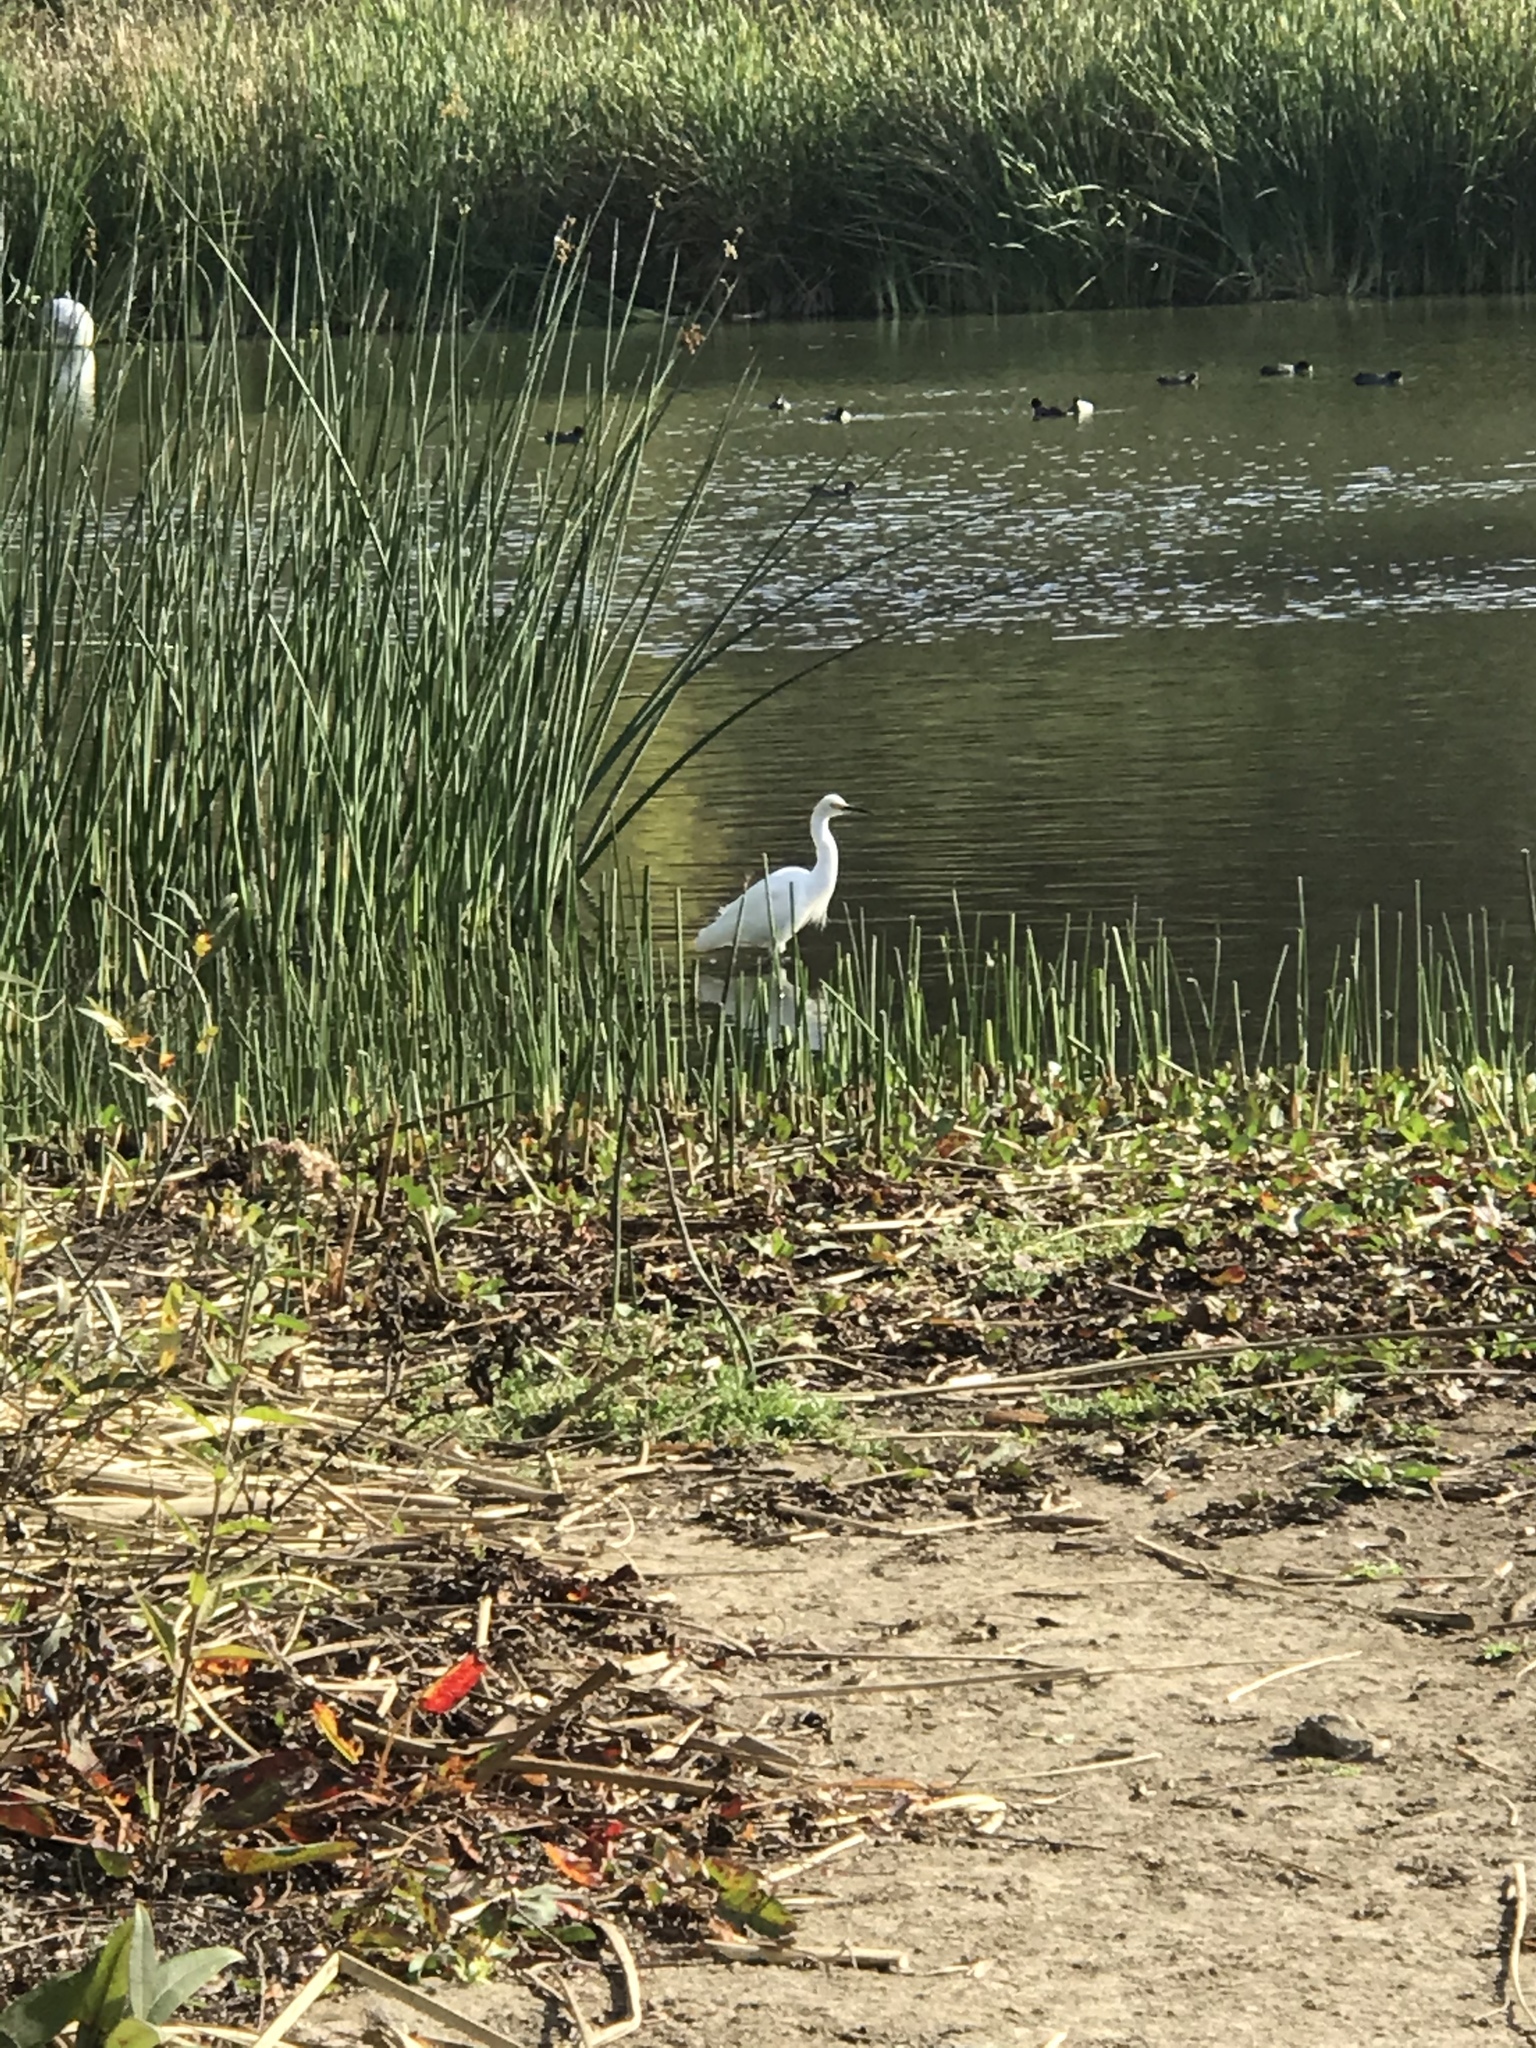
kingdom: Animalia
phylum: Chordata
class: Aves
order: Pelecaniformes
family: Ardeidae
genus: Egretta
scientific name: Egretta thula
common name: Snowy egret
